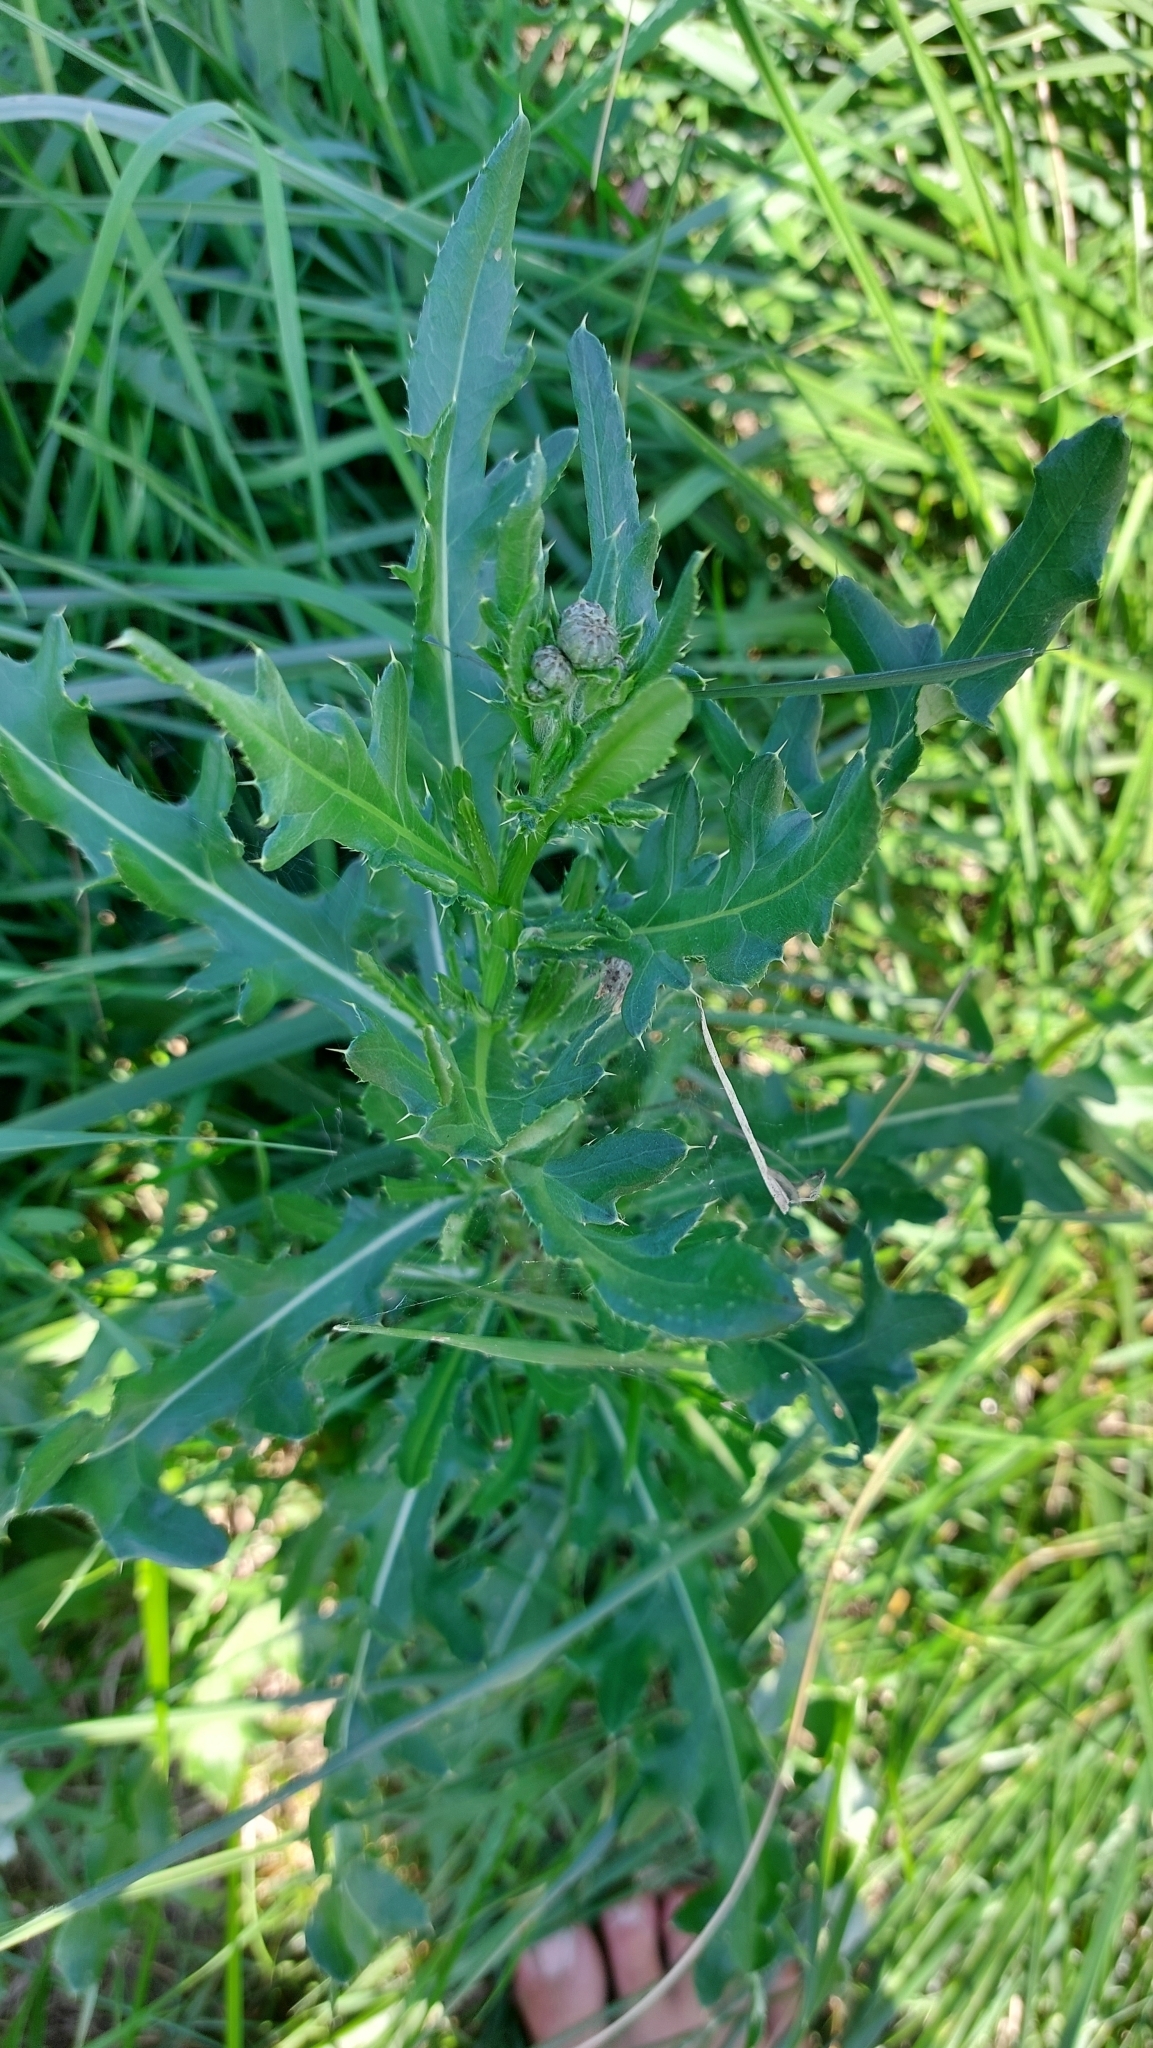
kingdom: Plantae
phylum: Tracheophyta
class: Magnoliopsida
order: Asterales
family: Asteraceae
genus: Cirsium
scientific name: Cirsium arvense
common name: Creeping thistle
